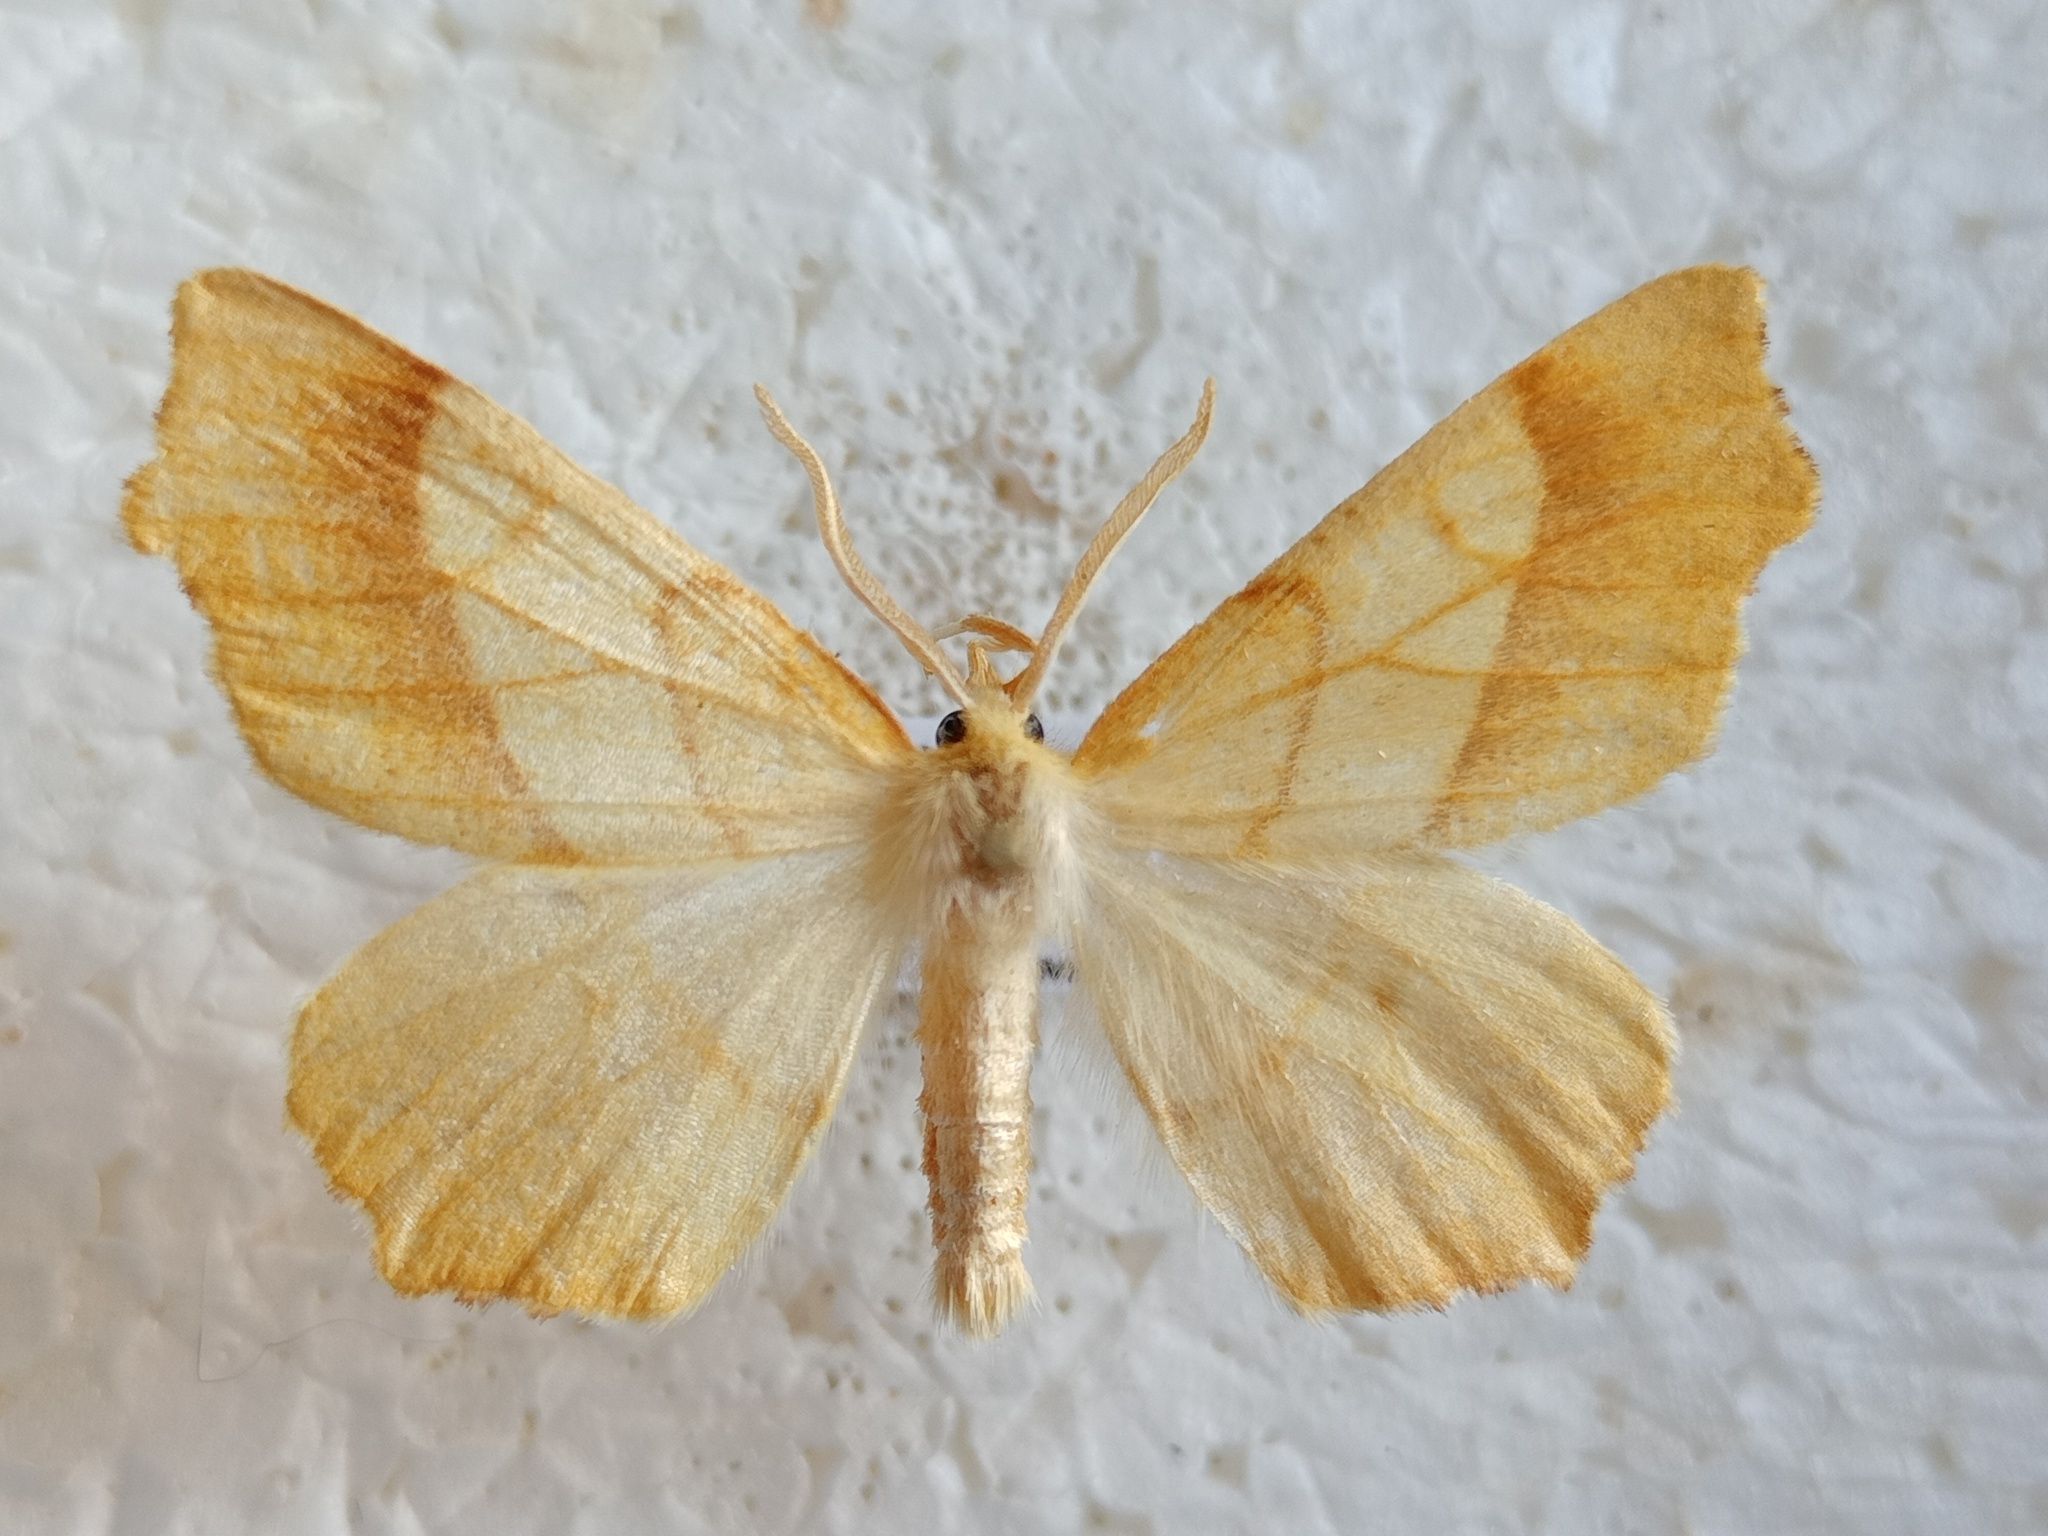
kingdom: Animalia
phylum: Arthropoda
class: Insecta
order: Lepidoptera
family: Geometridae
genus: Ennomos
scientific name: Ennomos quercinaria
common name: August thorn
